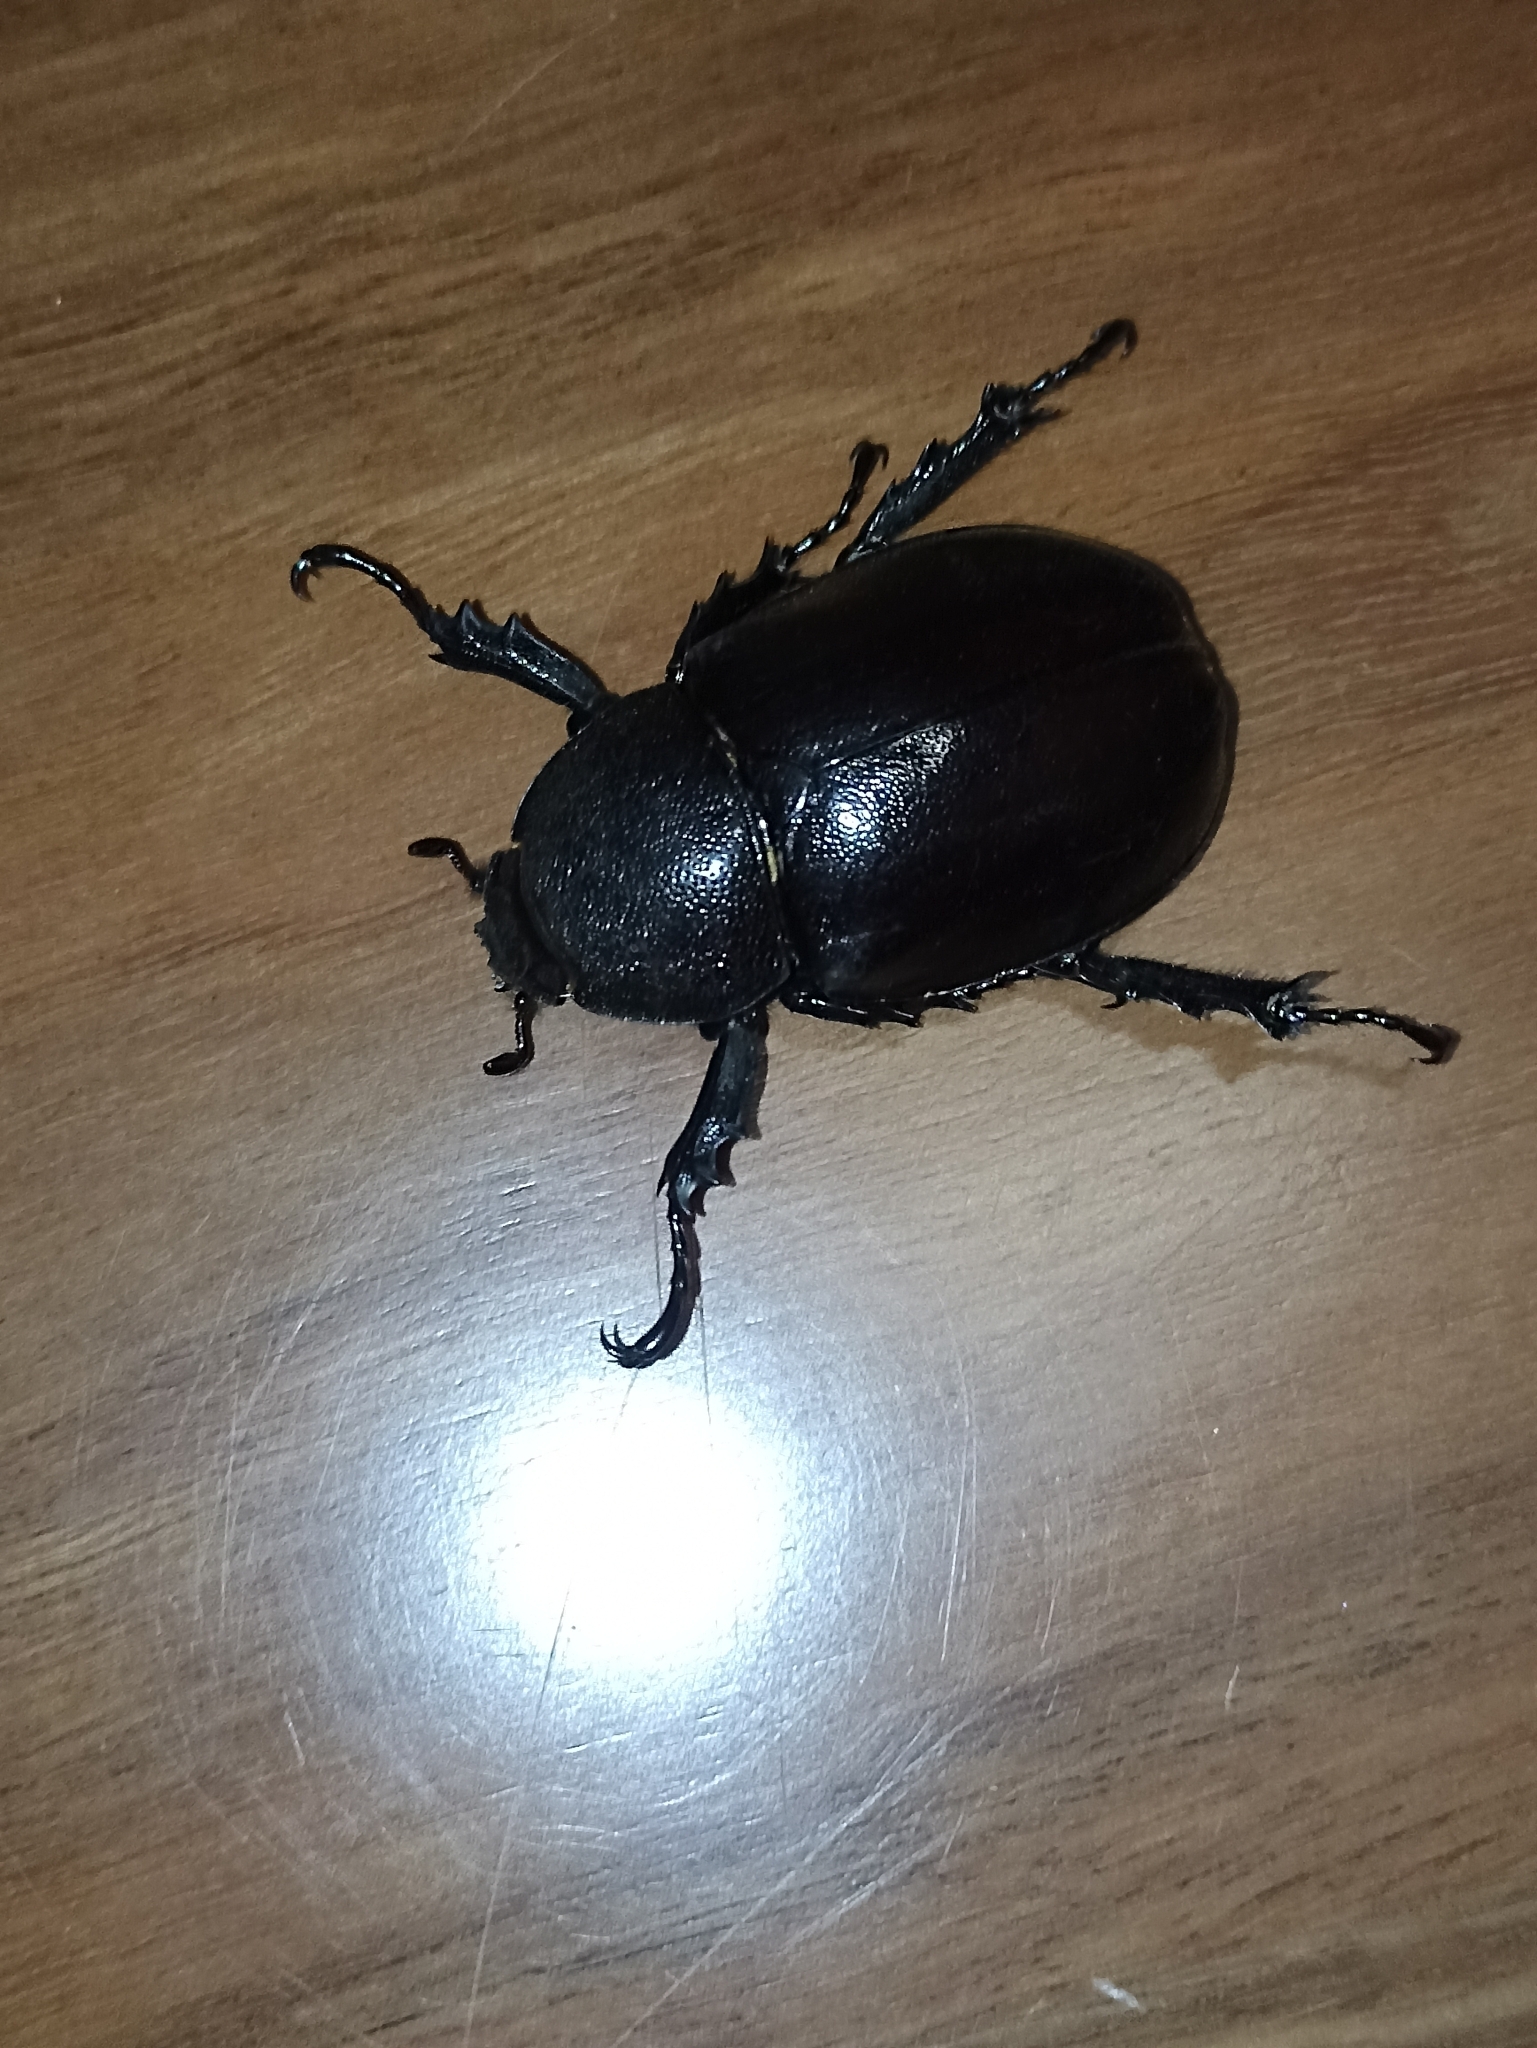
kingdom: Animalia
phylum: Arthropoda
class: Insecta
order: Coleoptera
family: Scarabaeidae
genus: Xylotrupes
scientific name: Xylotrupes australicus
